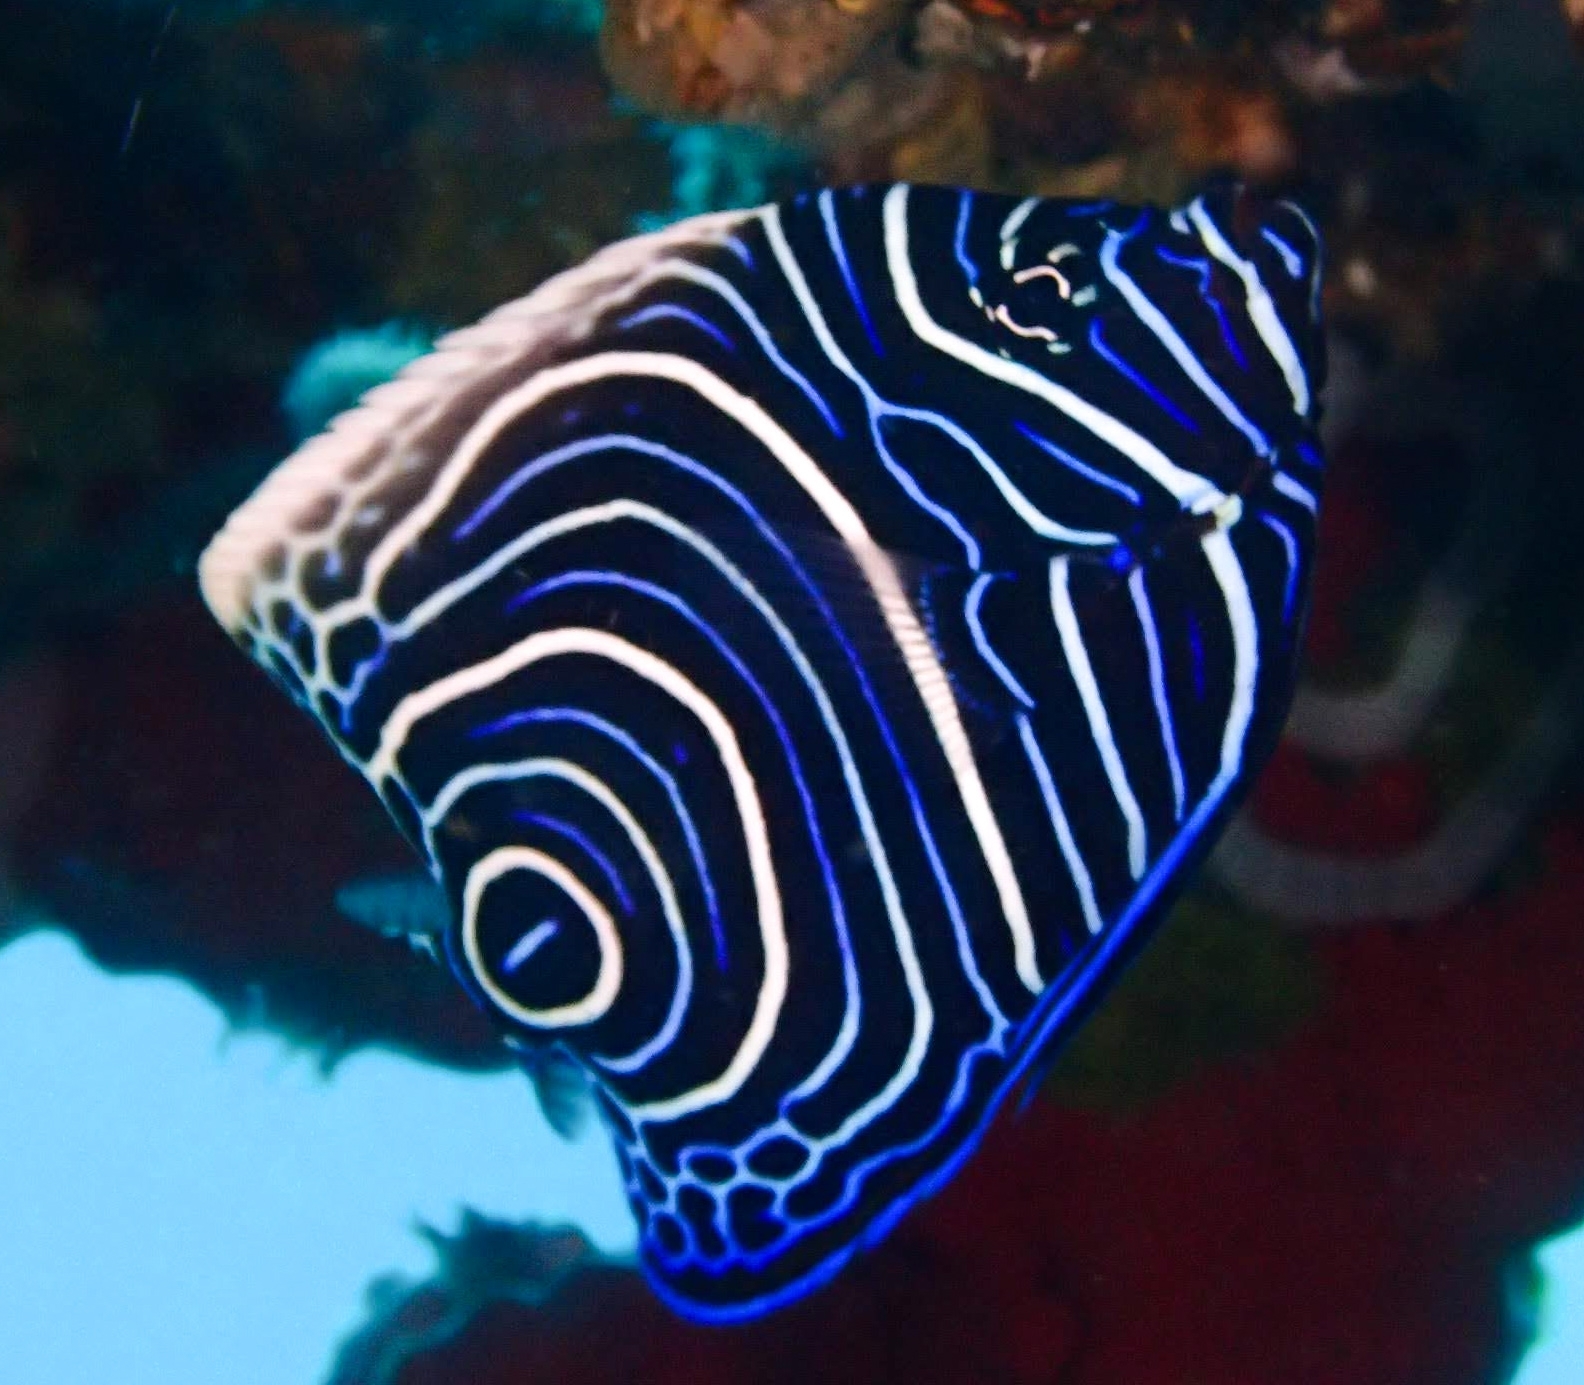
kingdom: Animalia
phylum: Chordata
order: Perciformes
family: Pomacanthidae
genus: Pomacanthus
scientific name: Pomacanthus imperator
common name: Emperor angelfish
